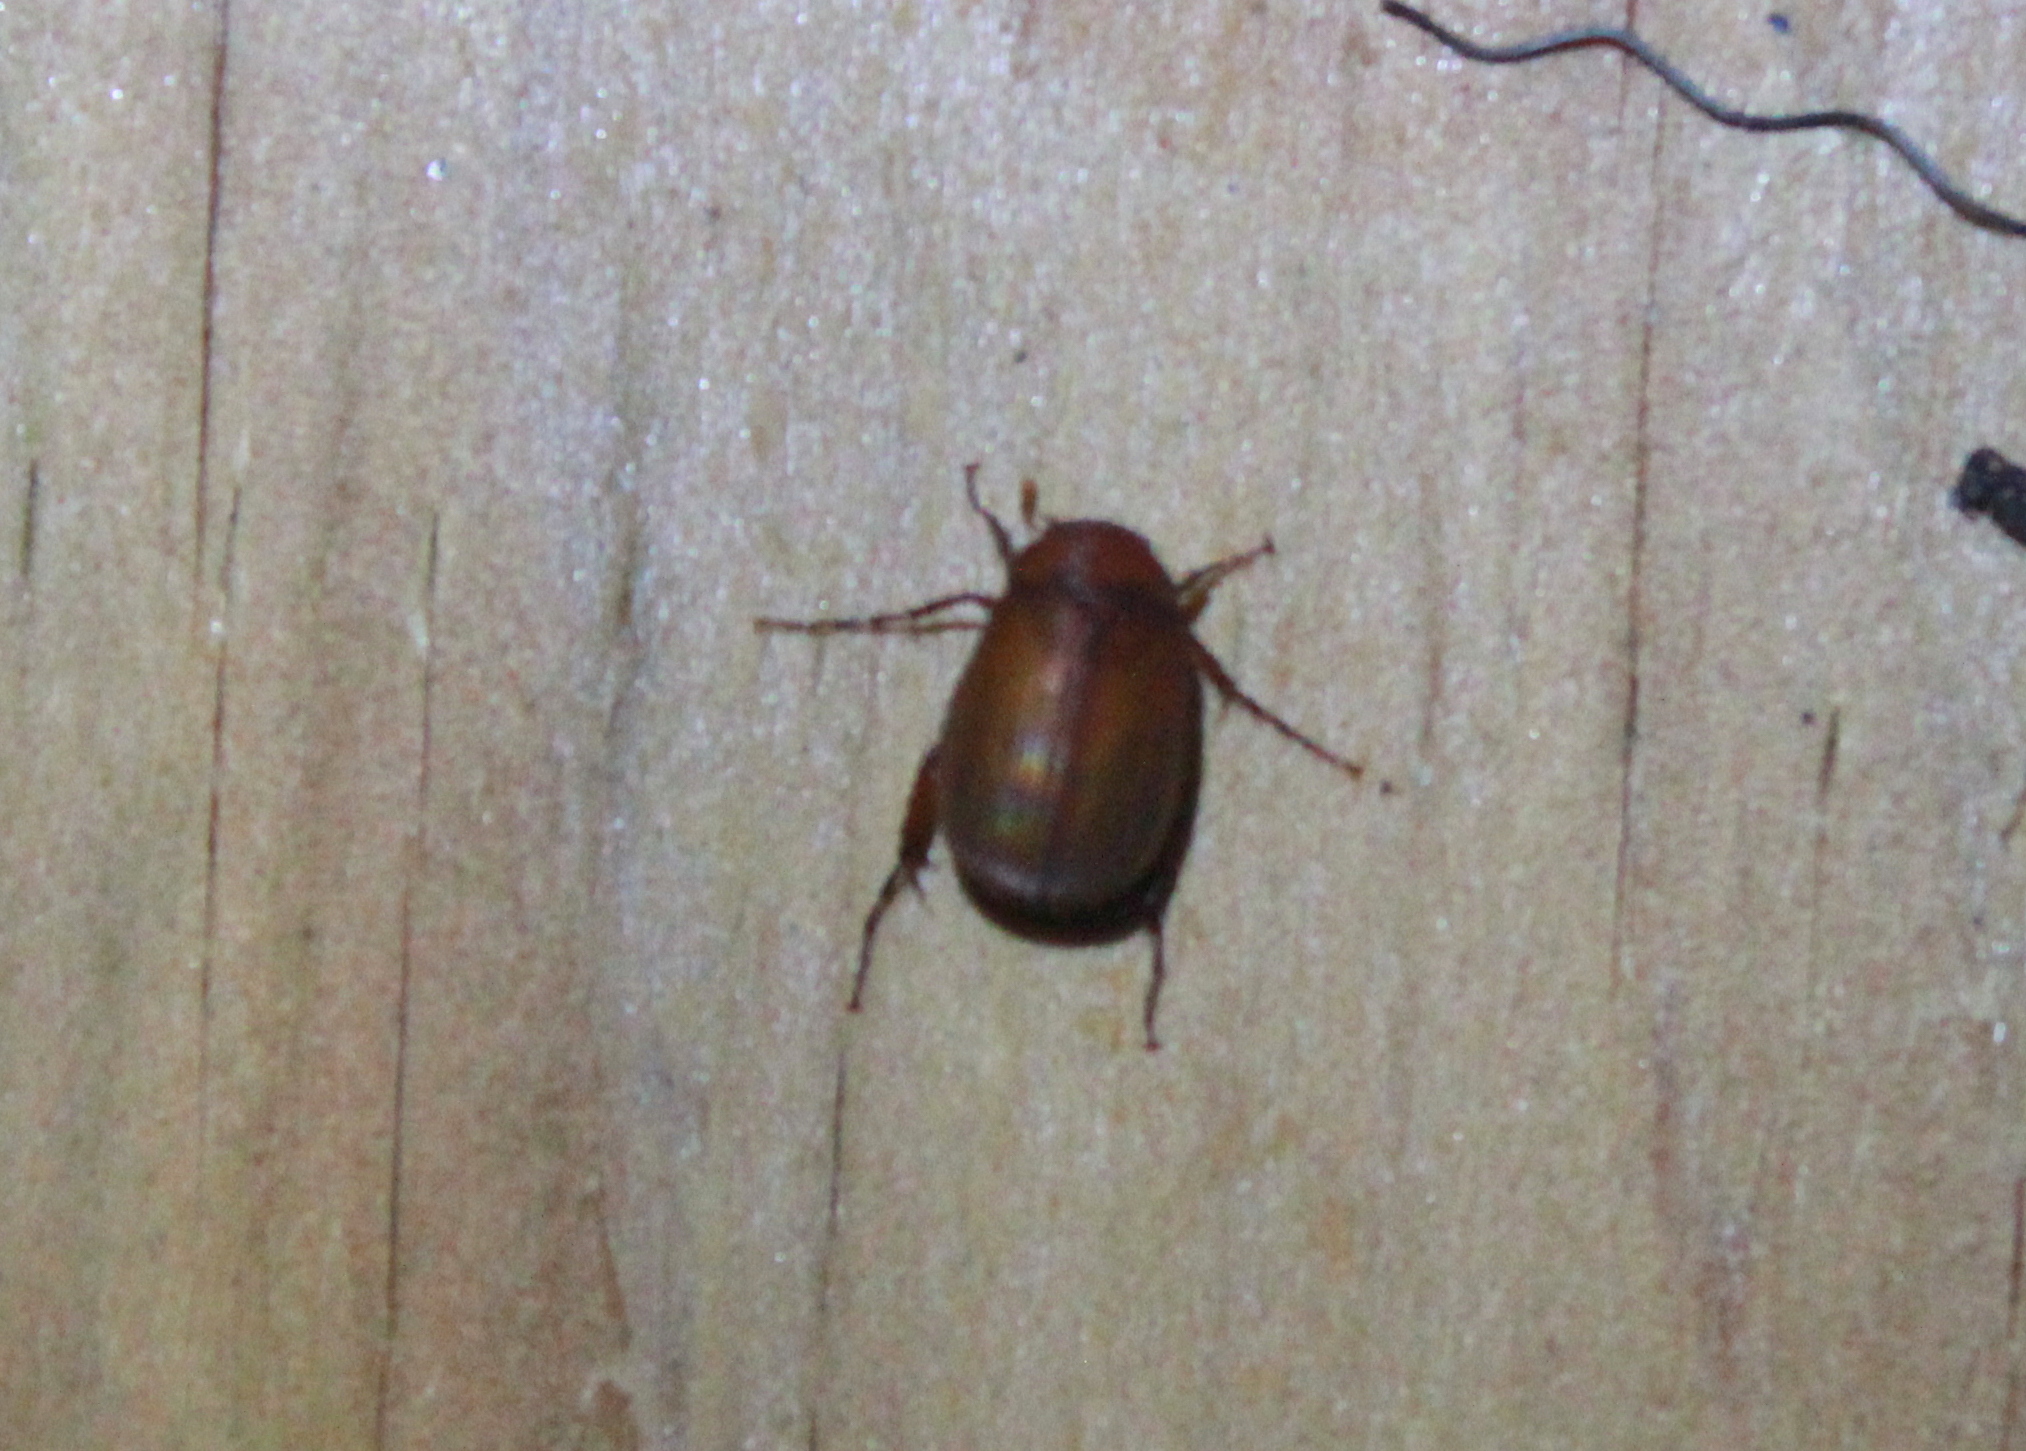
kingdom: Animalia
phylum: Arthropoda
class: Insecta
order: Coleoptera
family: Scarabaeidae
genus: Maladera
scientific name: Maladera formosae
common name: Asiatic garden beetle
